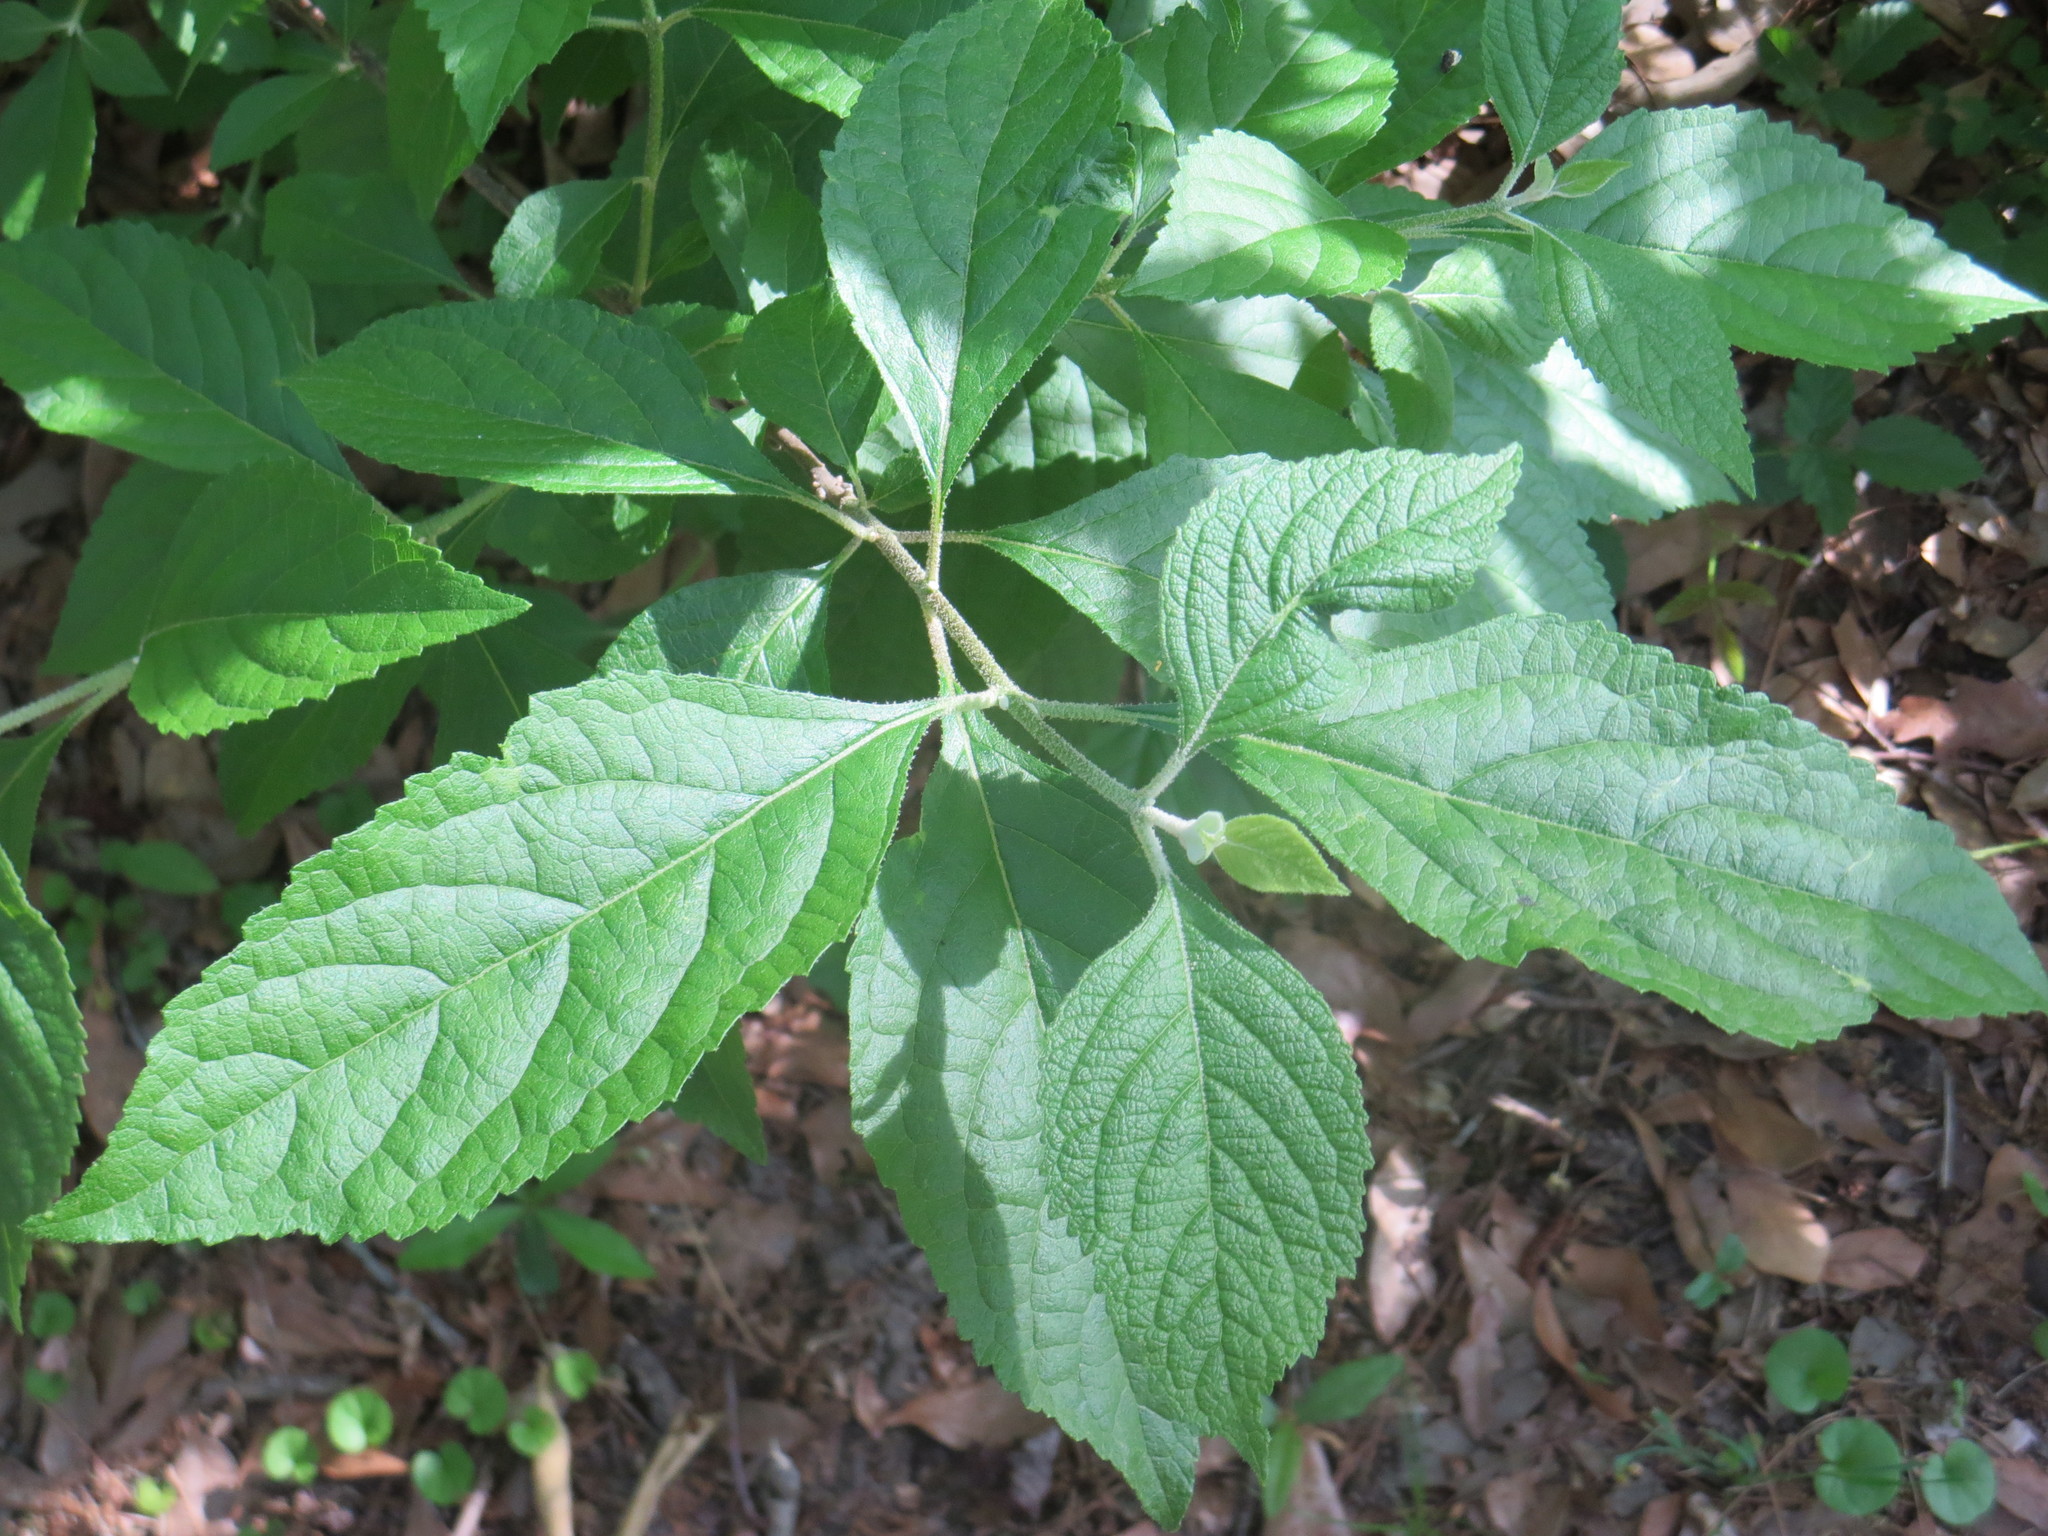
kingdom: Plantae
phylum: Tracheophyta
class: Magnoliopsida
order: Lamiales
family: Lamiaceae
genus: Callicarpa
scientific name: Callicarpa americana
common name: American beautyberry
